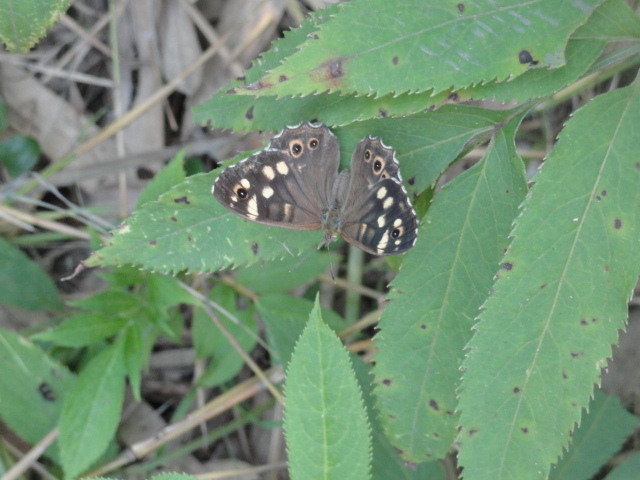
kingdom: Animalia
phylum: Arthropoda
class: Insecta
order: Lepidoptera
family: Nymphalidae
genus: Pararge
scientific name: Pararge aegeria
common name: Speckled wood
